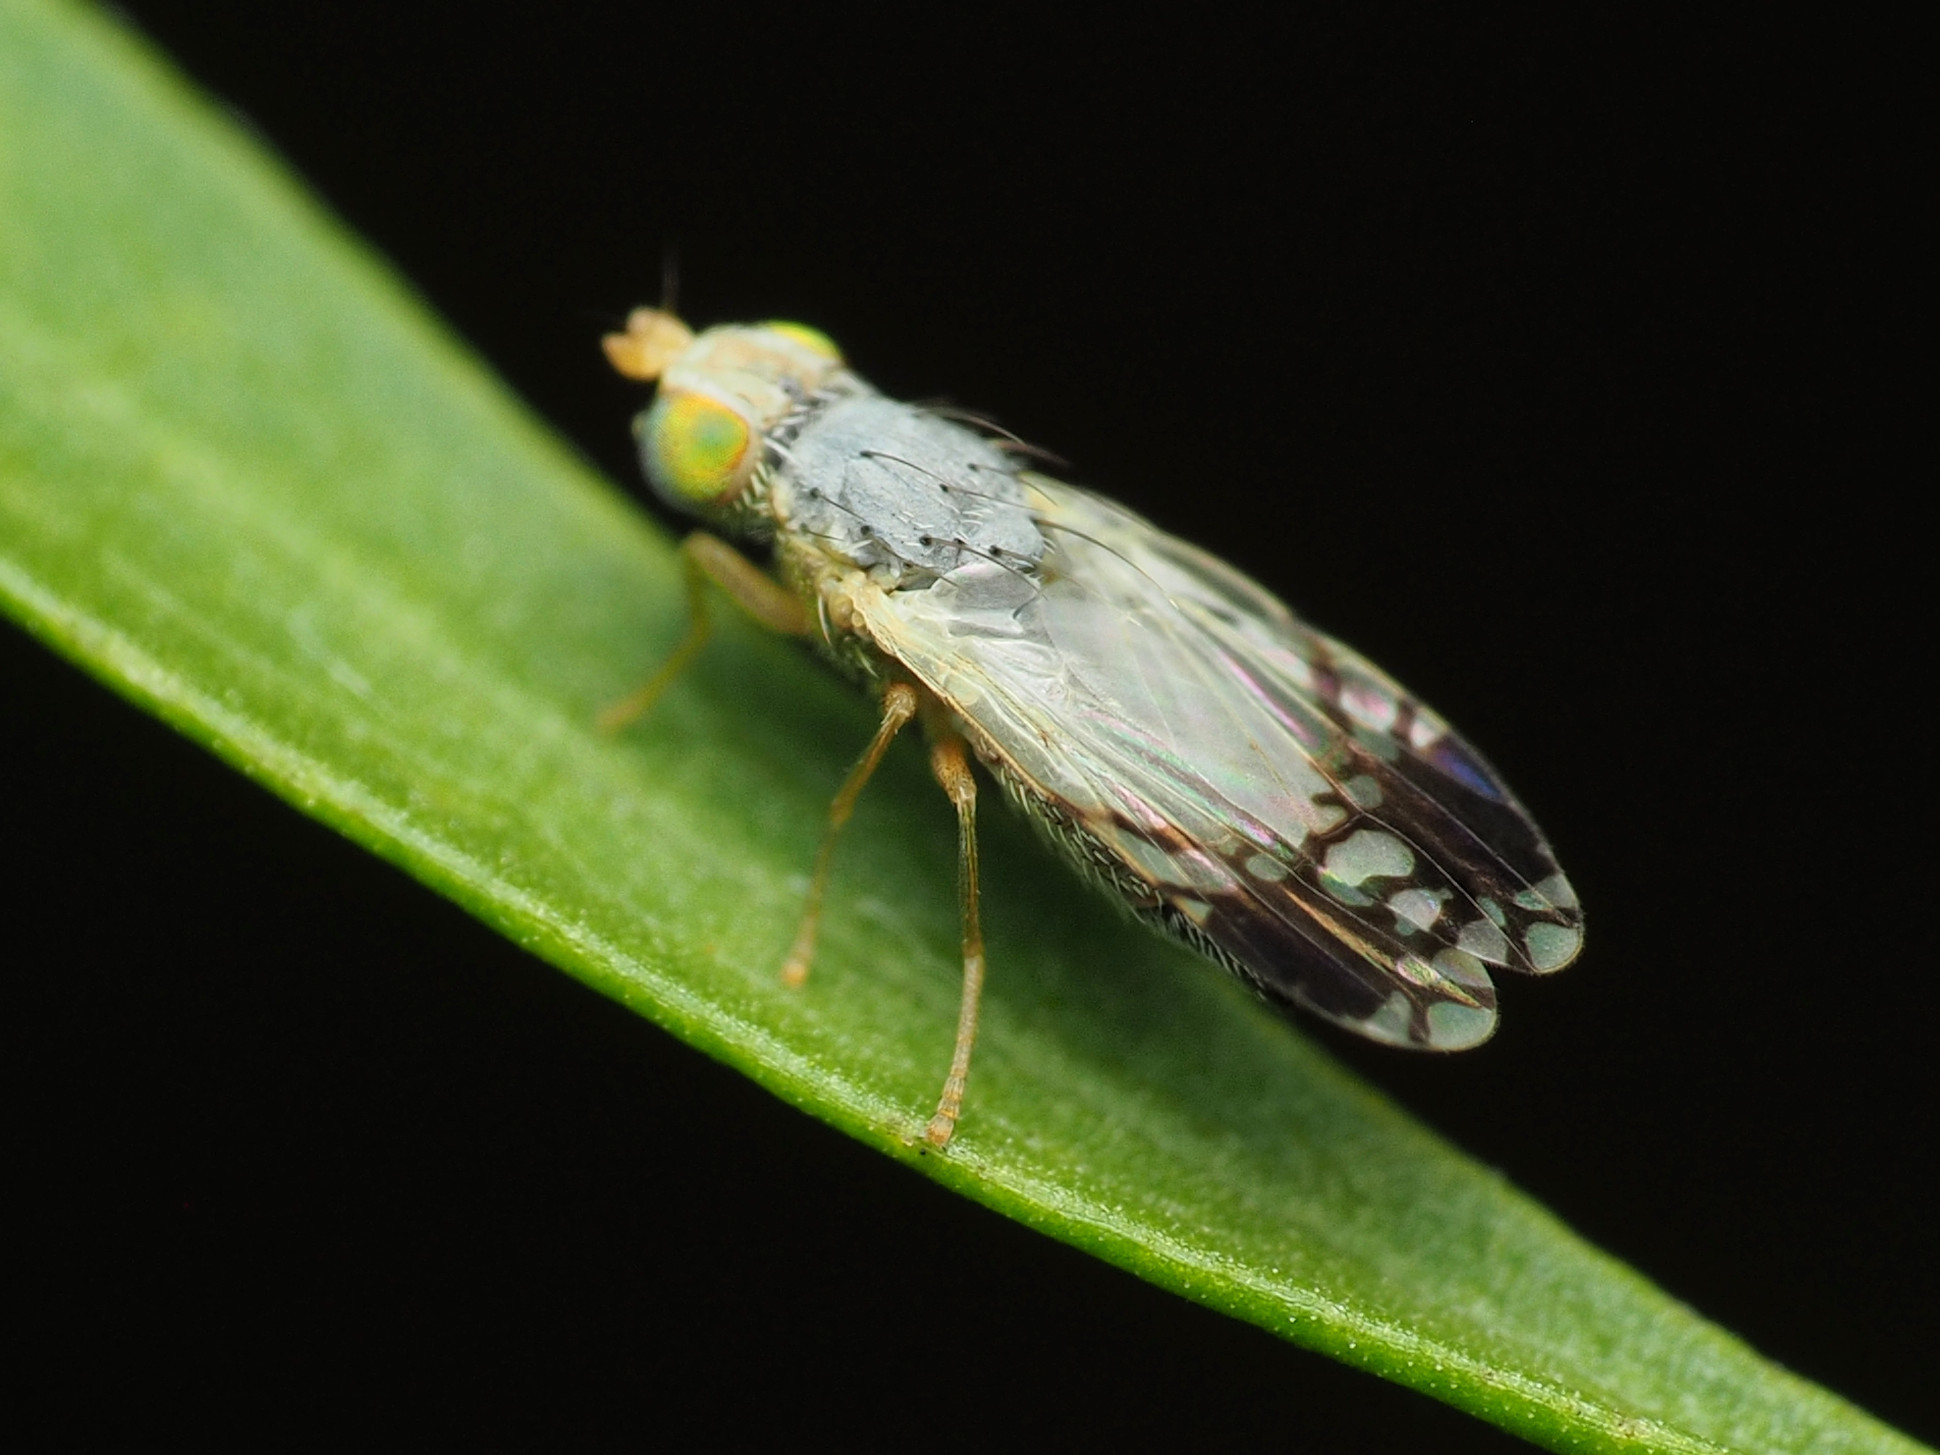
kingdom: Animalia
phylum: Arthropoda
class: Insecta
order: Diptera
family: Tephritidae
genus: Trupanea
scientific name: Trupanea actinobola
